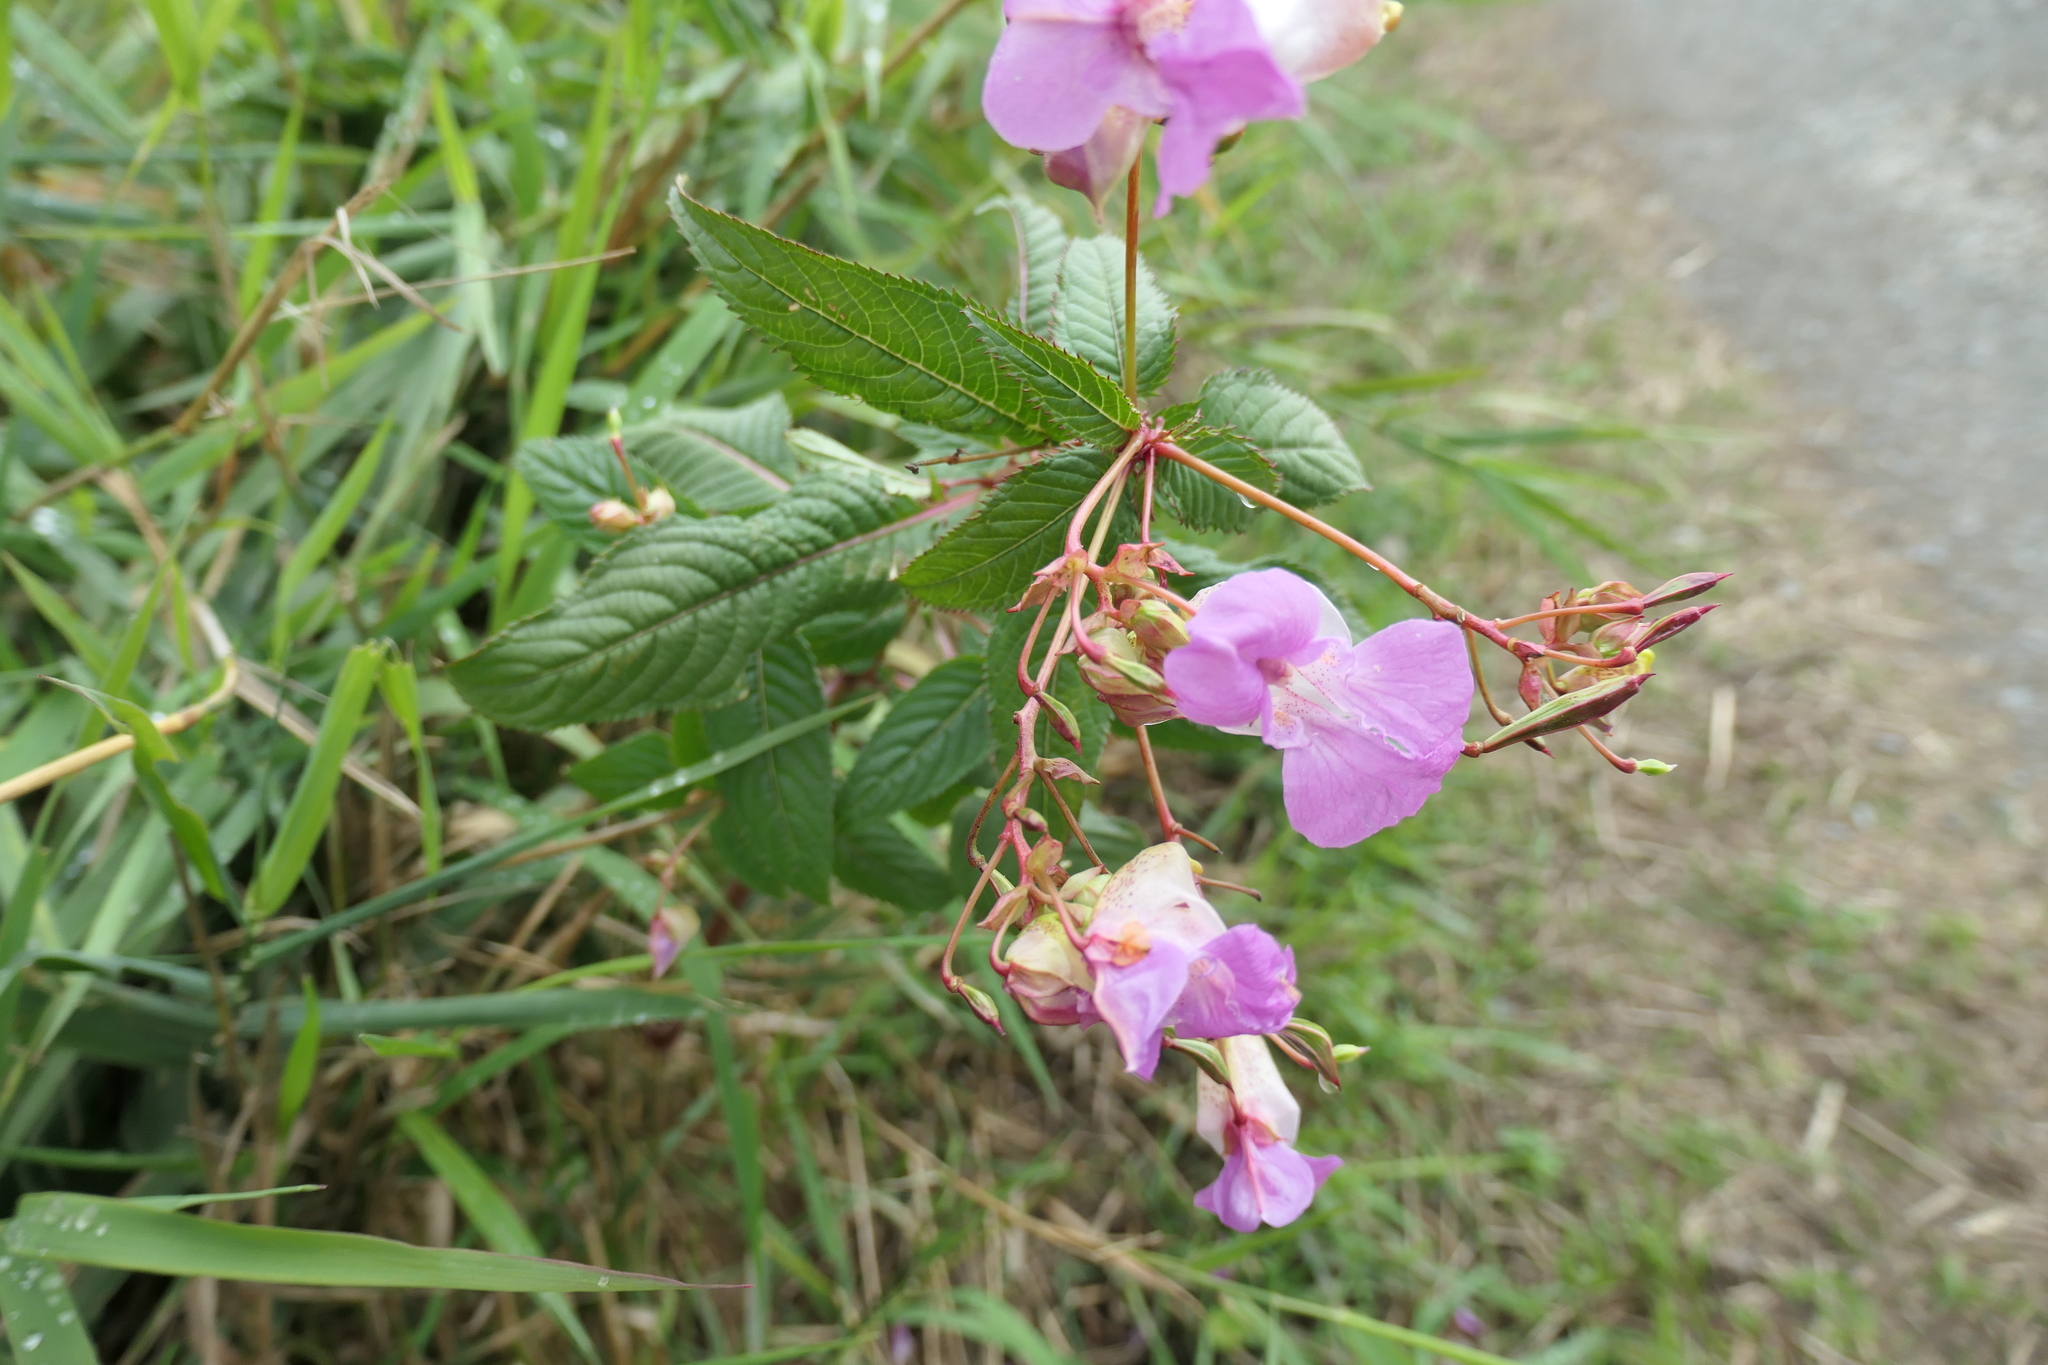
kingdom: Plantae
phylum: Tracheophyta
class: Magnoliopsida
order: Ericales
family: Balsaminaceae
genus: Impatiens
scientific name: Impatiens glandulifera
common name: Himalayan balsam
